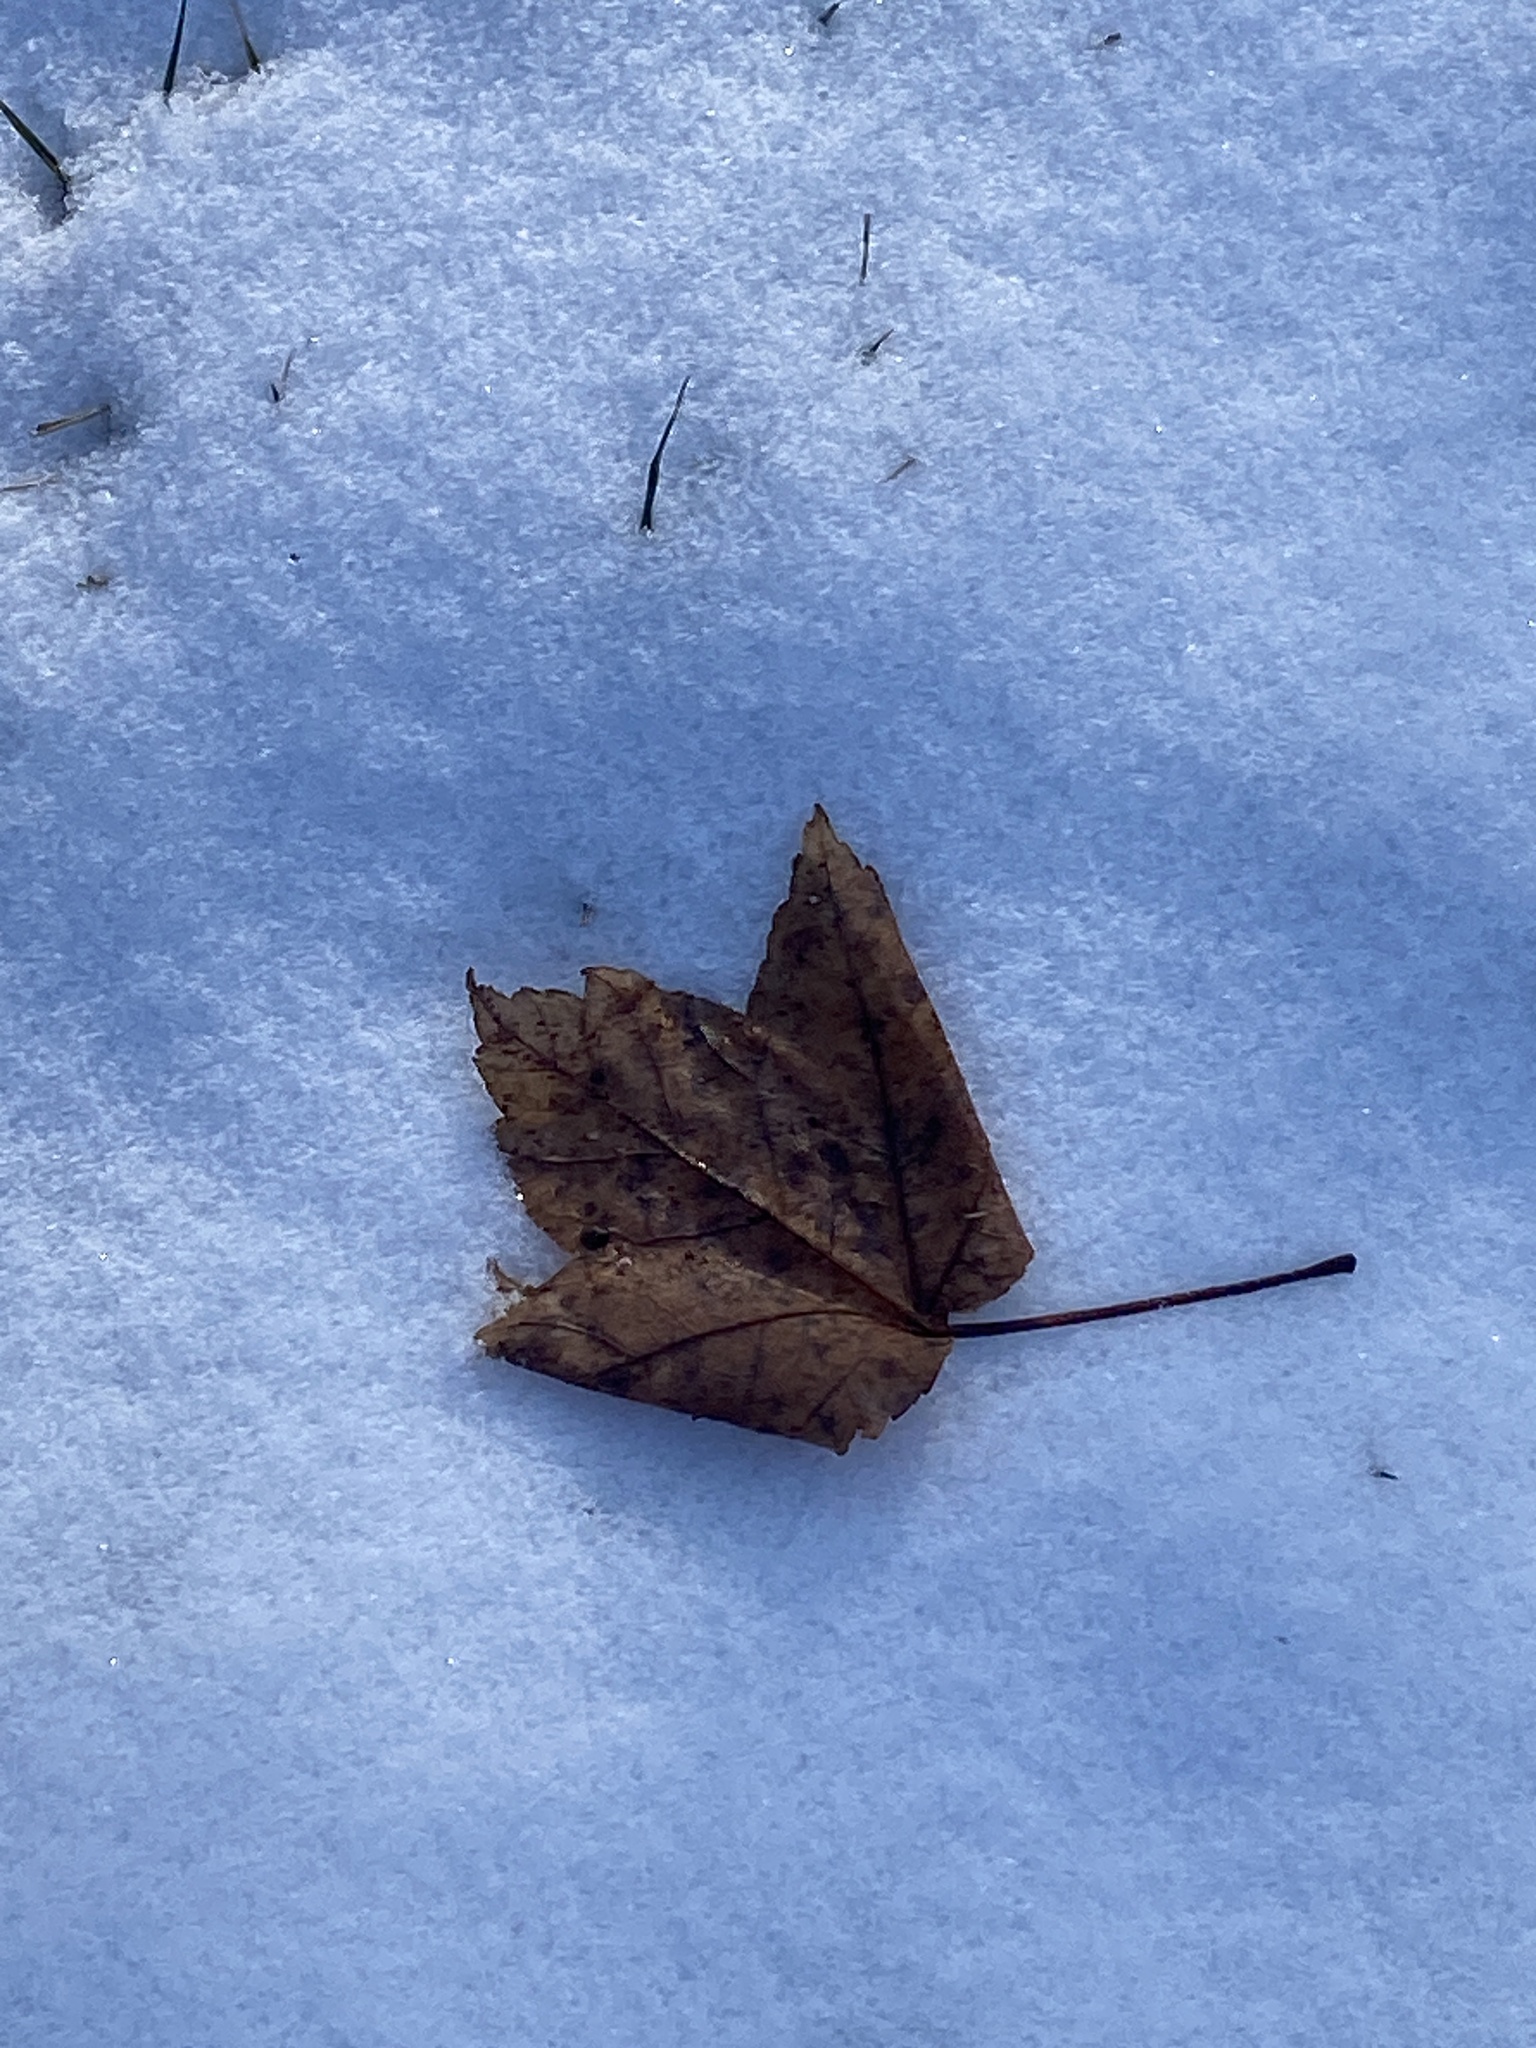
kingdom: Plantae
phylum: Tracheophyta
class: Magnoliopsida
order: Sapindales
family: Sapindaceae
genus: Acer
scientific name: Acer rubrum
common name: Red maple
